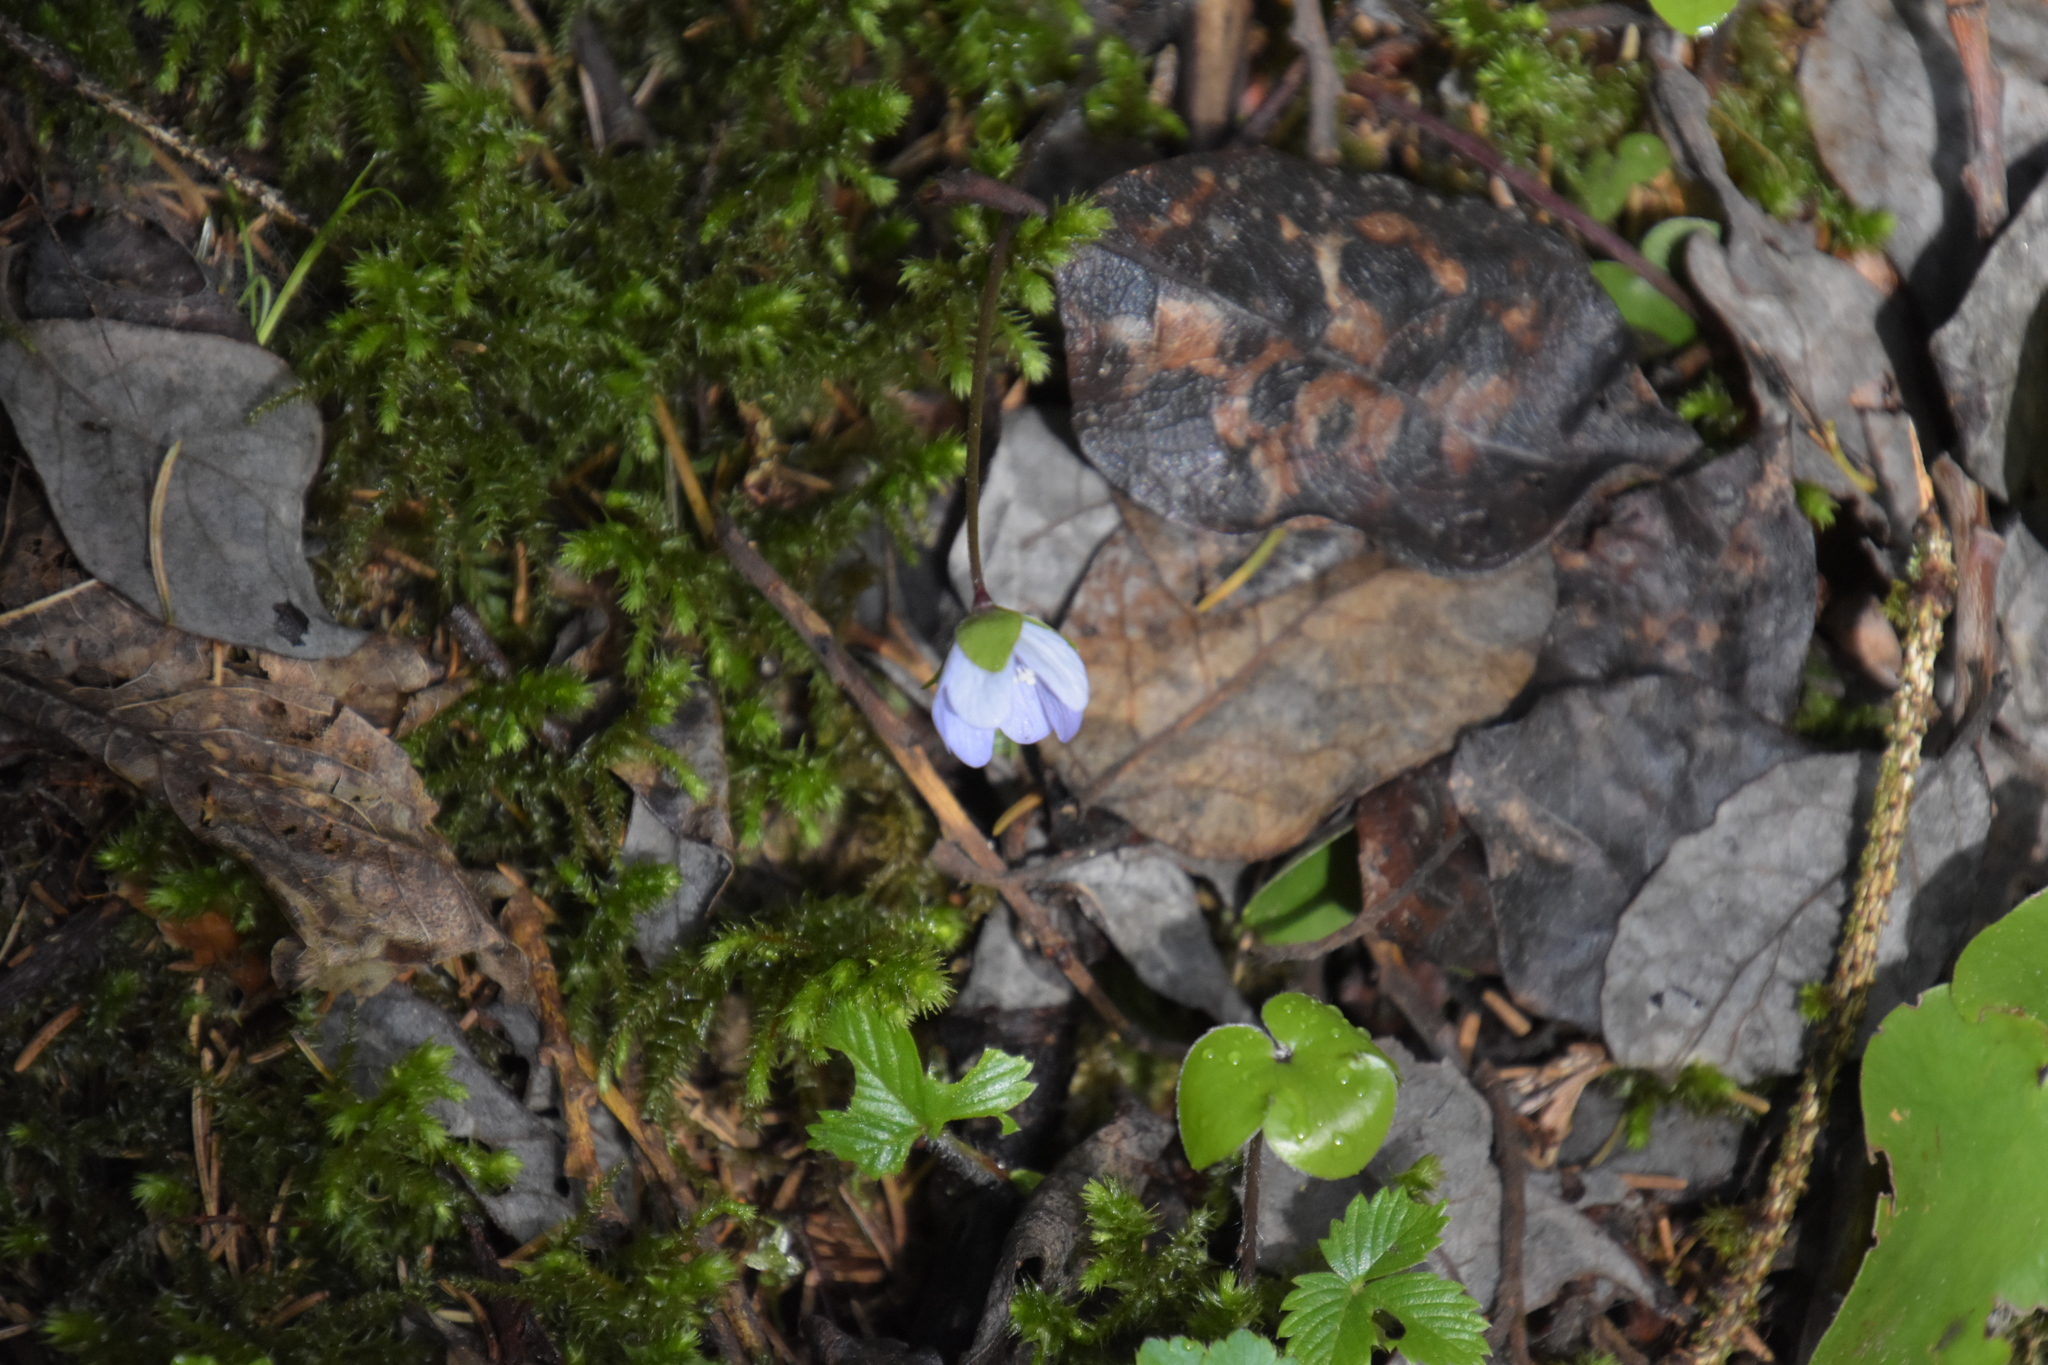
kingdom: Plantae
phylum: Tracheophyta
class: Magnoliopsida
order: Ranunculales
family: Ranunculaceae
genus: Hepatica
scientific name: Hepatica nobilis
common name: Liverleaf
